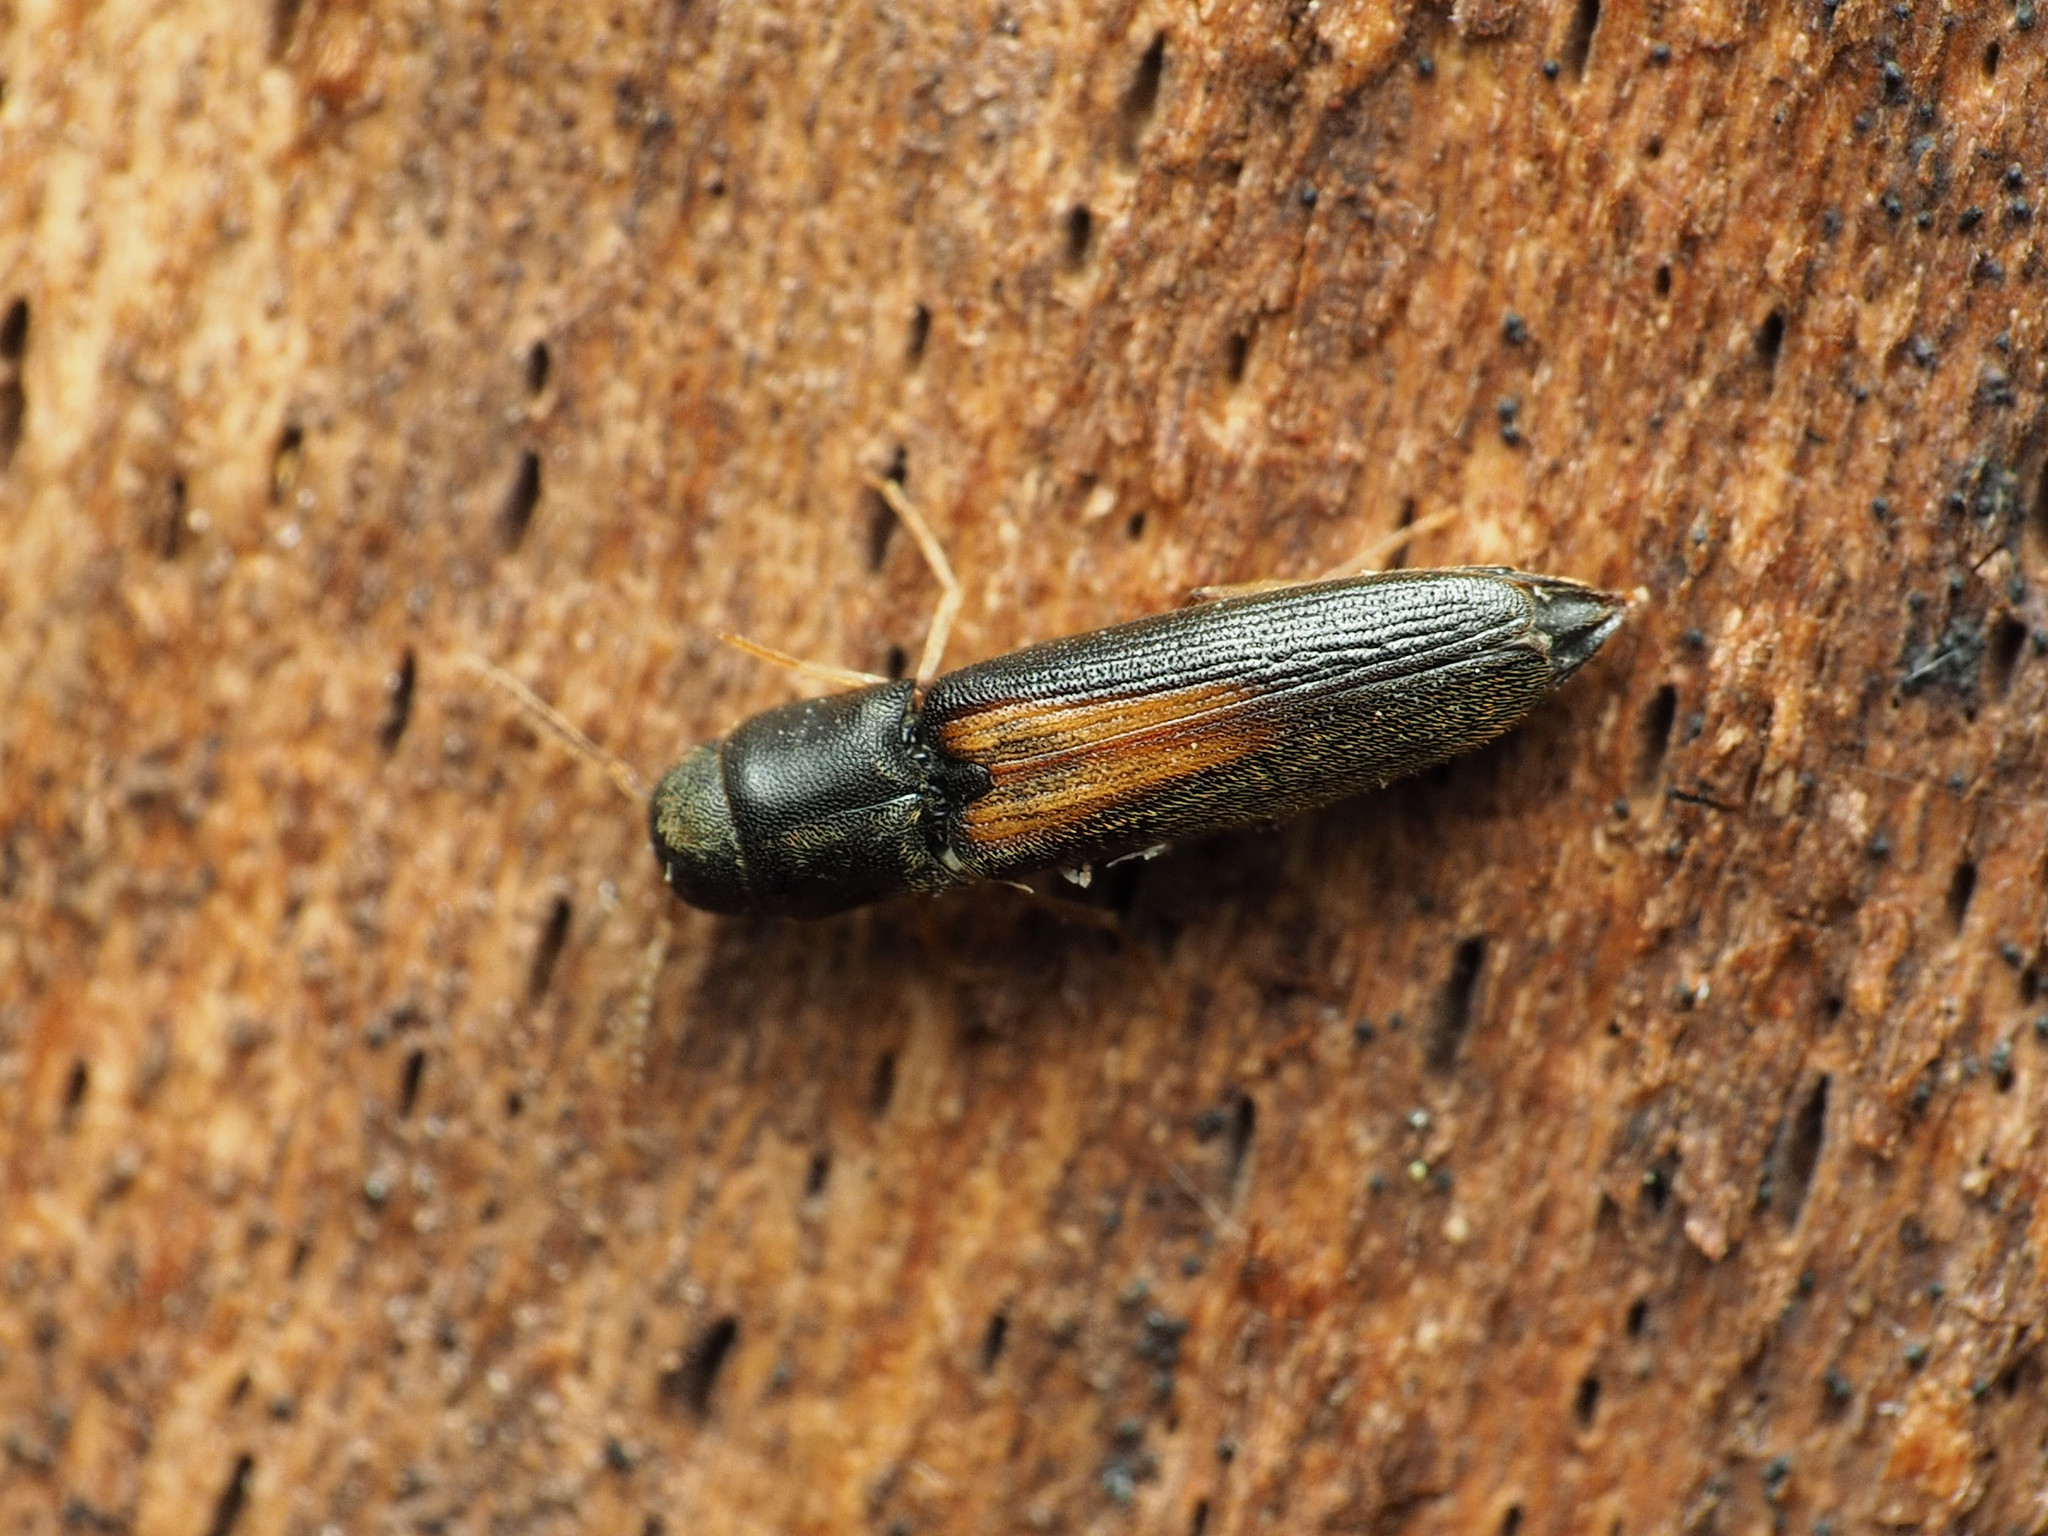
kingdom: Animalia
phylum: Arthropoda
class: Insecta
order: Coleoptera
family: Eucnemidae
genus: Isorhipis
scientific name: Isorhipis obliqua
